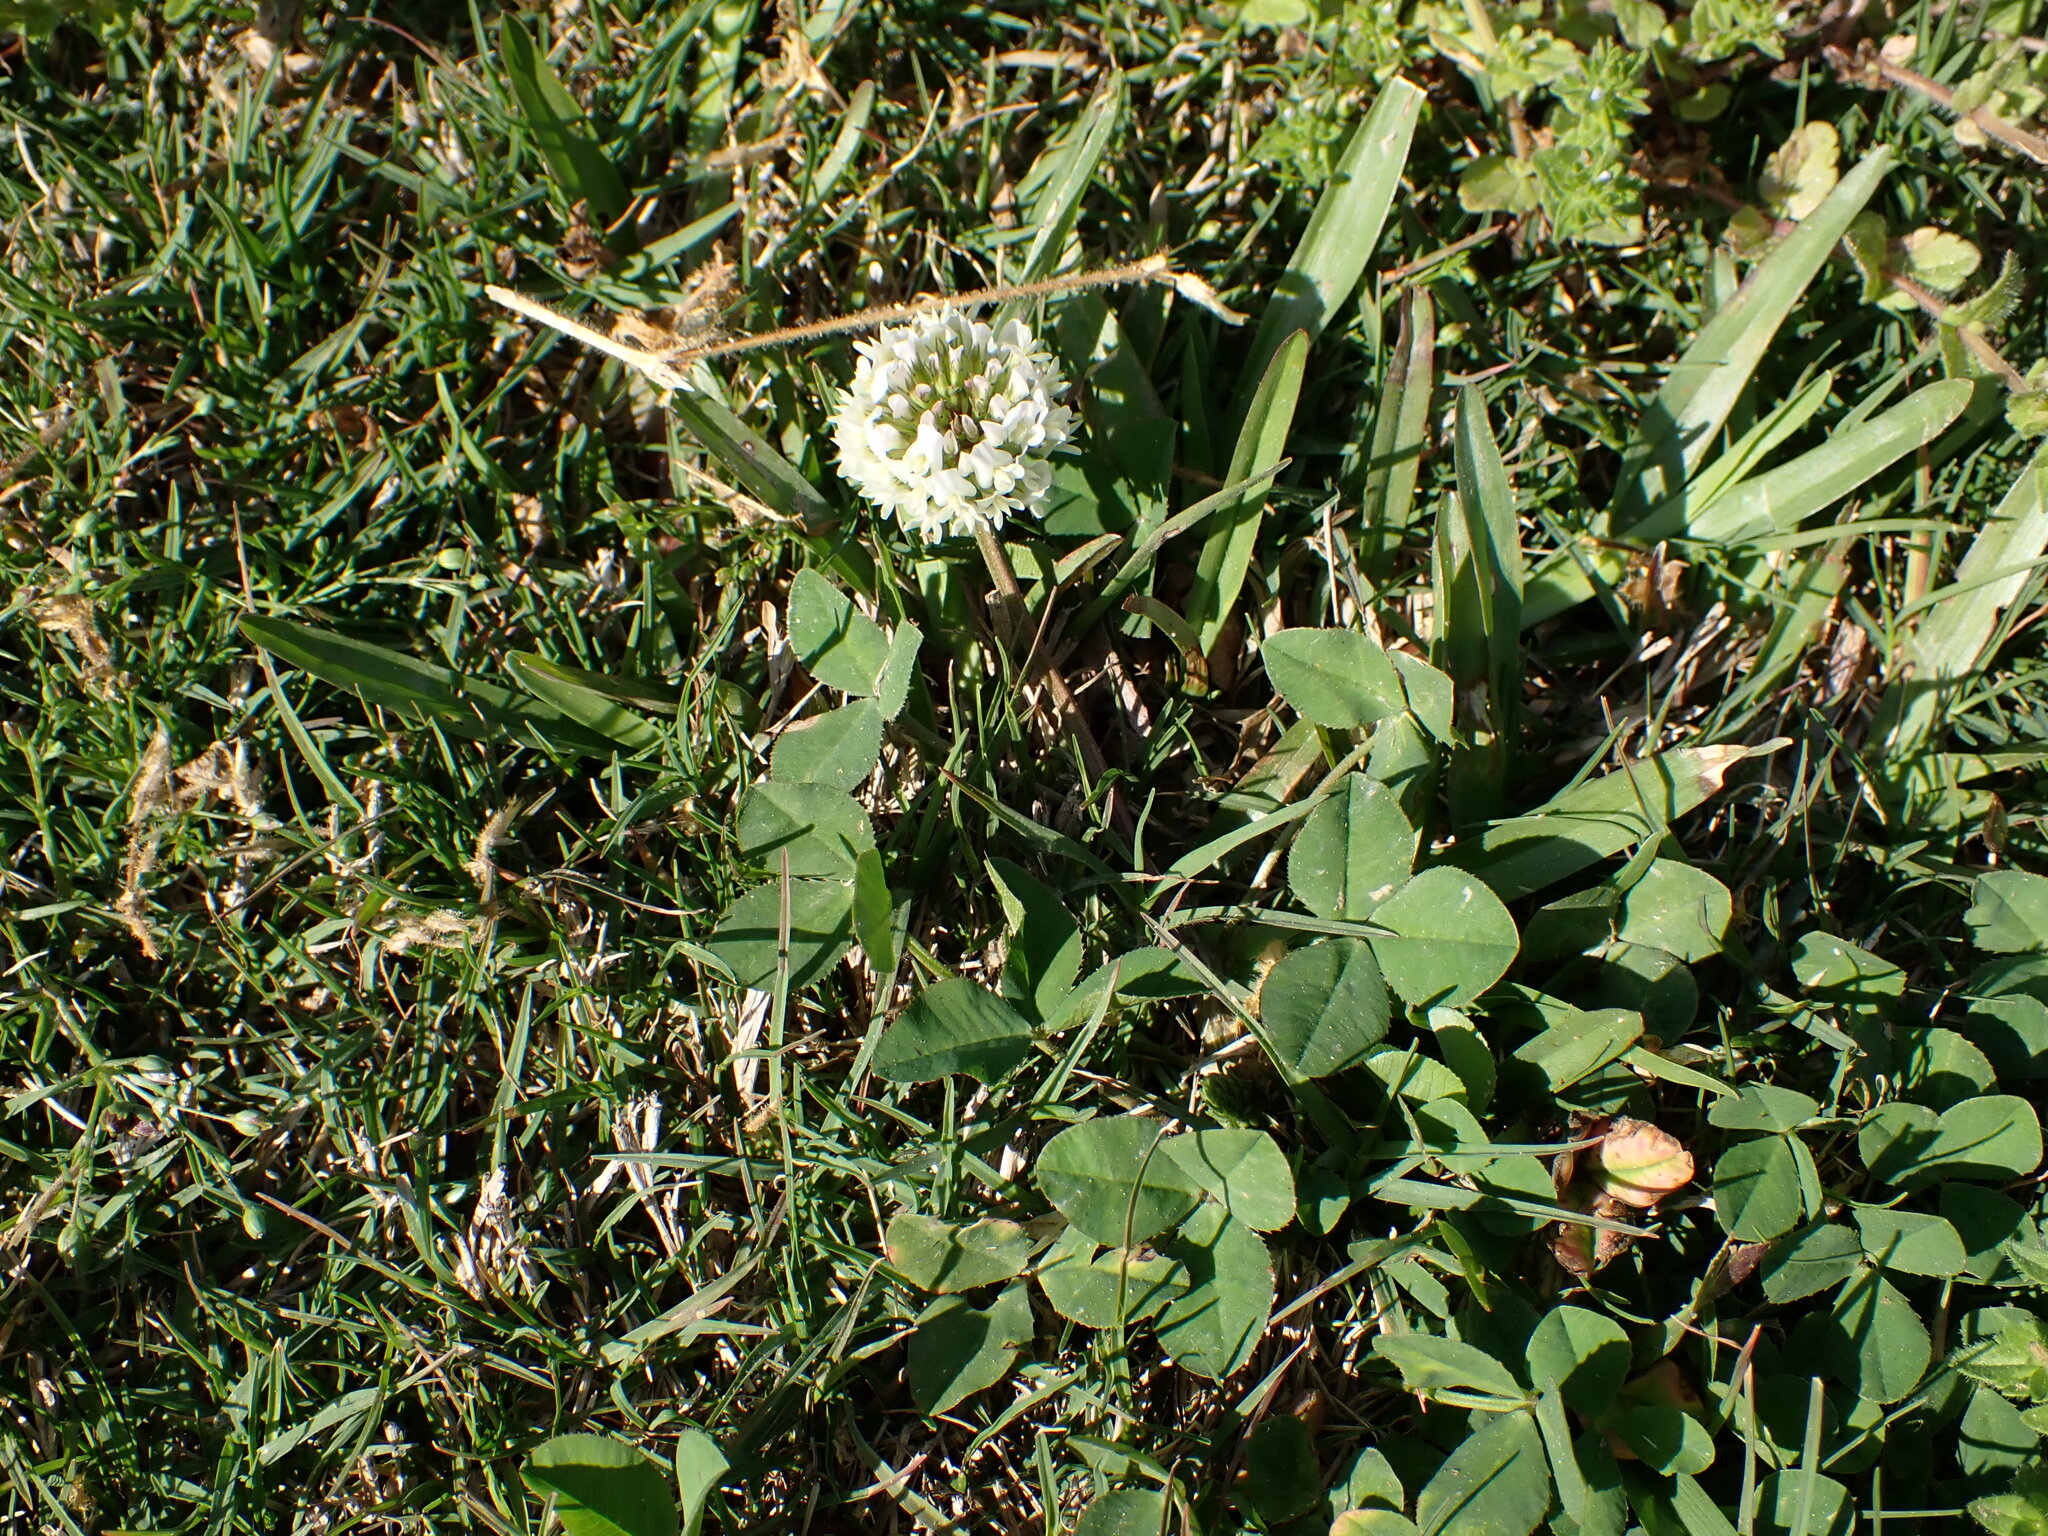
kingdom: Plantae
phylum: Tracheophyta
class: Magnoliopsida
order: Fabales
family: Fabaceae
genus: Trifolium
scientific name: Trifolium repens
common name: White clover
